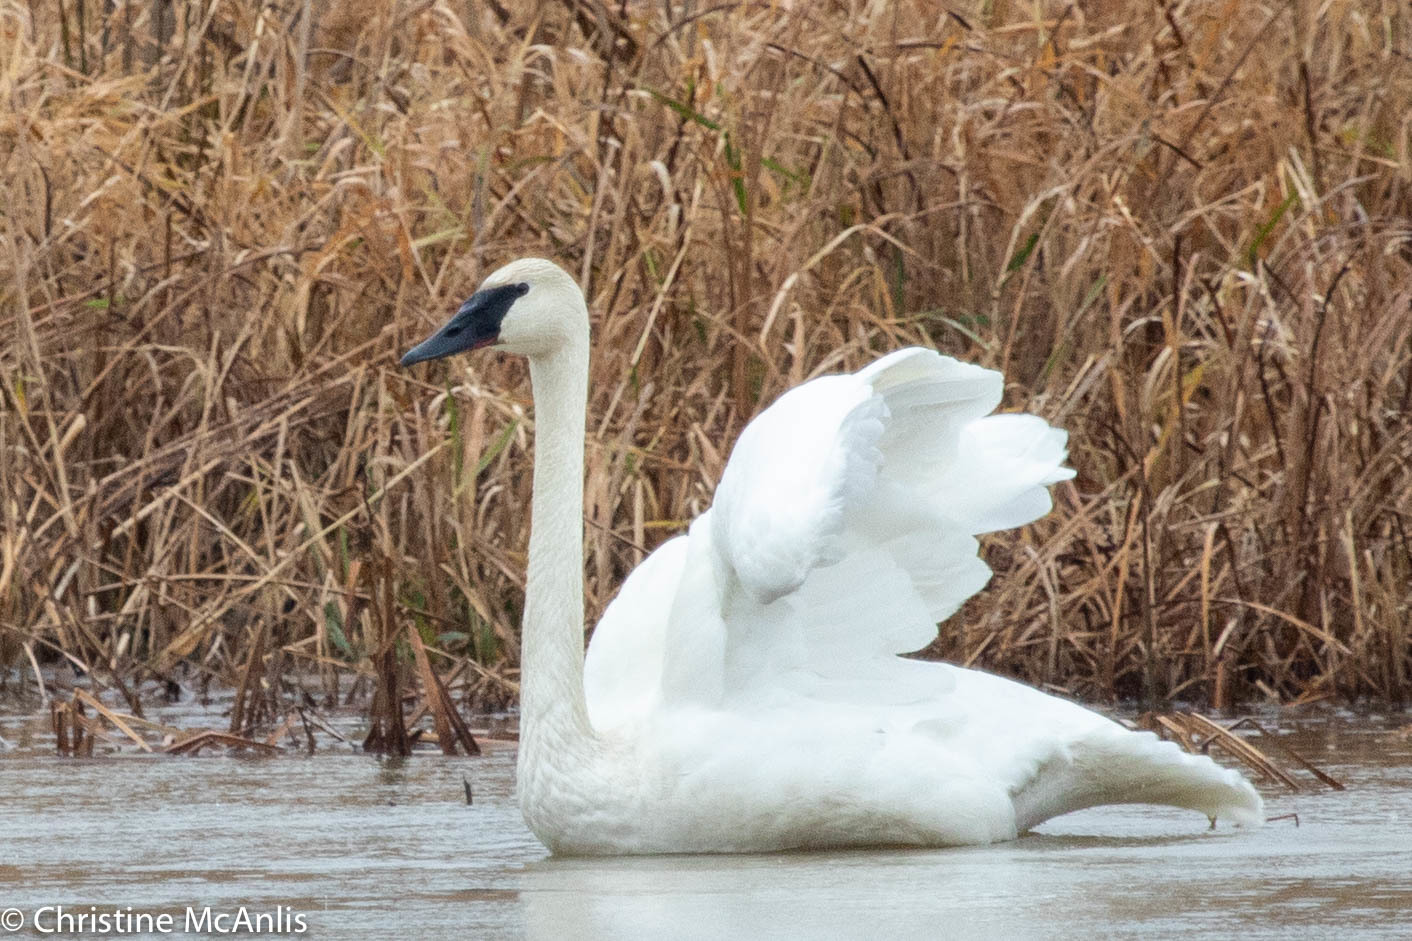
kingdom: Animalia
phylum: Chordata
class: Aves
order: Anseriformes
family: Anatidae
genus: Cygnus
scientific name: Cygnus buccinator
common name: Trumpeter swan
